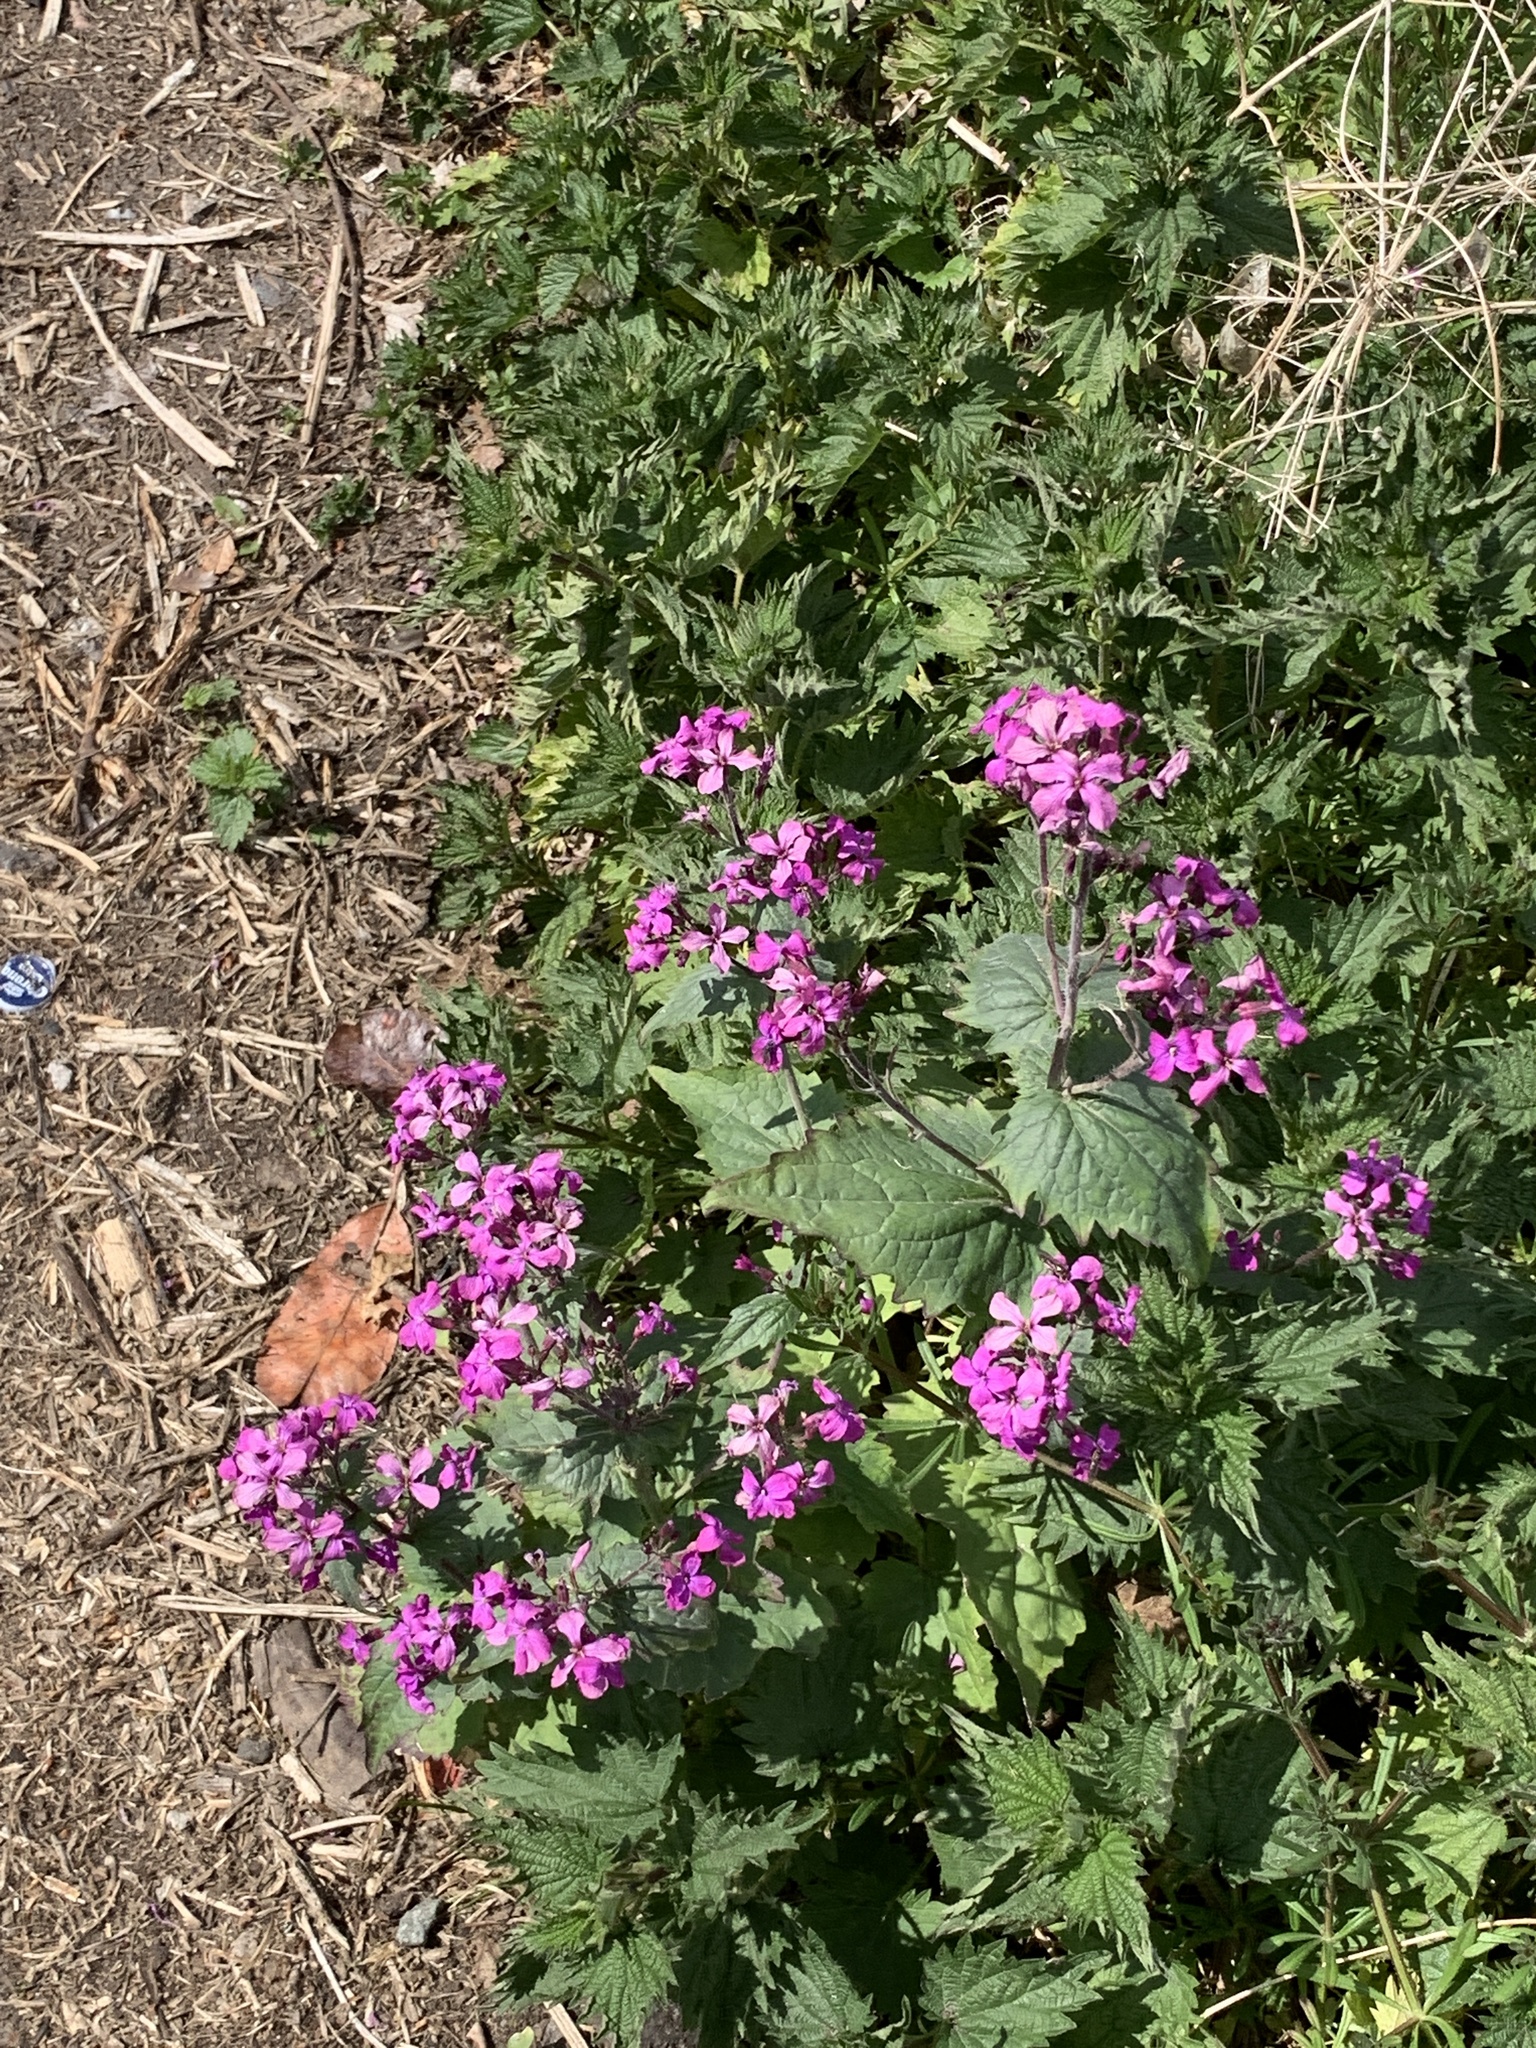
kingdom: Plantae
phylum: Tracheophyta
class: Magnoliopsida
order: Brassicales
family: Brassicaceae
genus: Lunaria
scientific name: Lunaria annua
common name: Honesty
